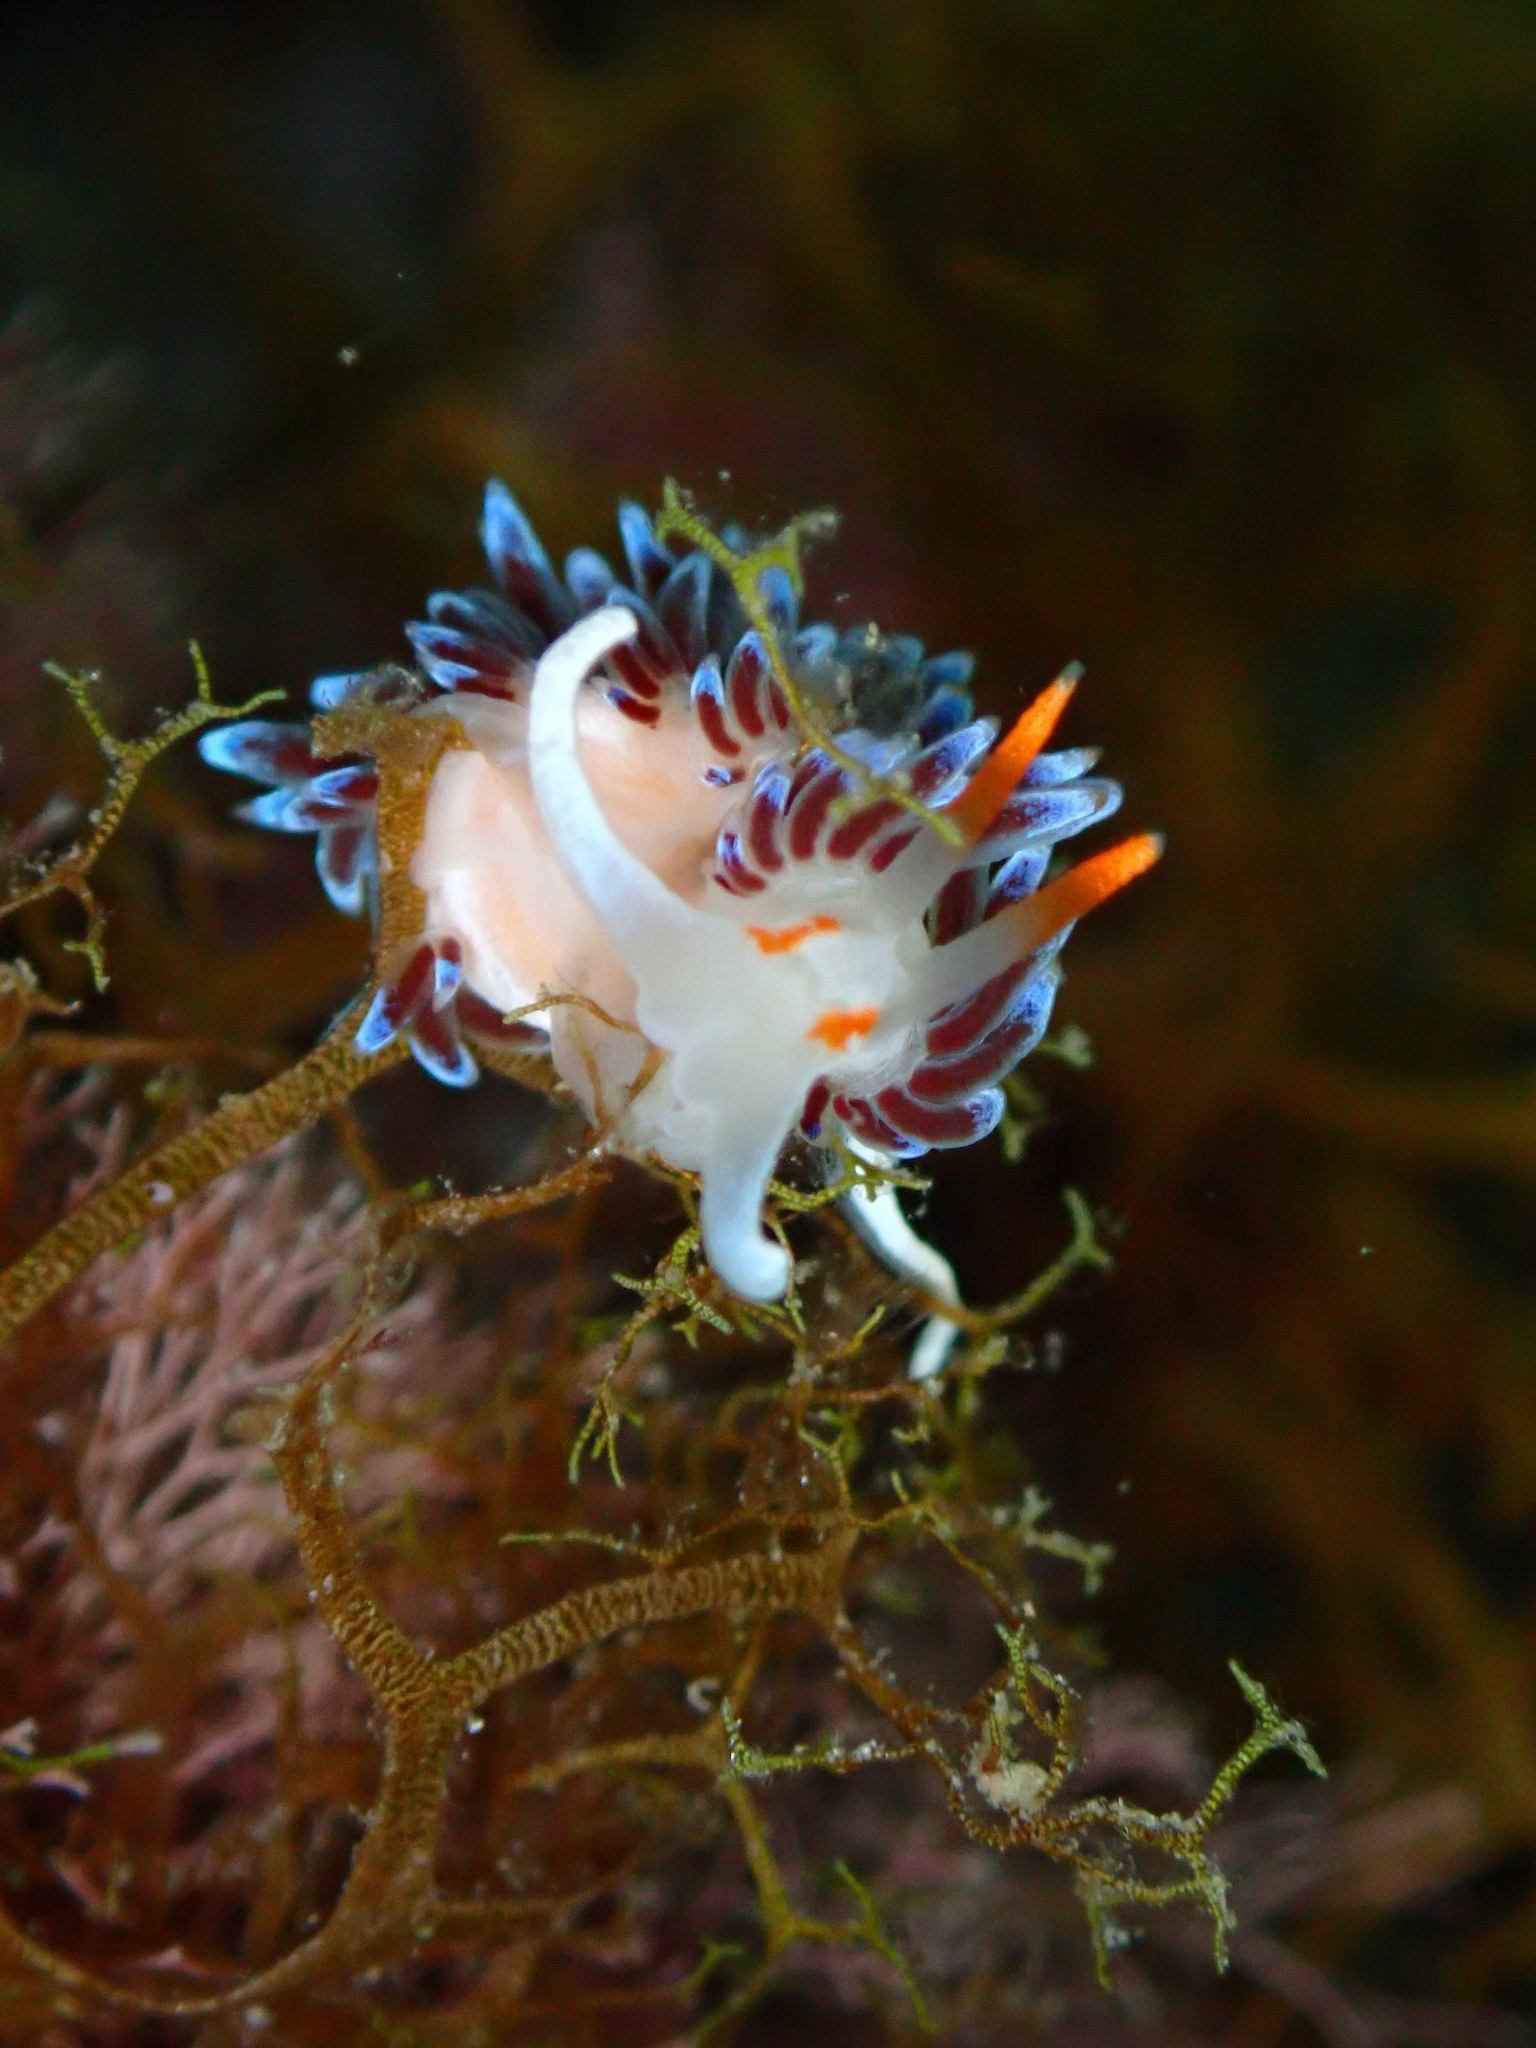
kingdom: Animalia
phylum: Mollusca
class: Gastropoda
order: Nudibranchia
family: Facelinidae
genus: Cratena
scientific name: Cratena peregrina
